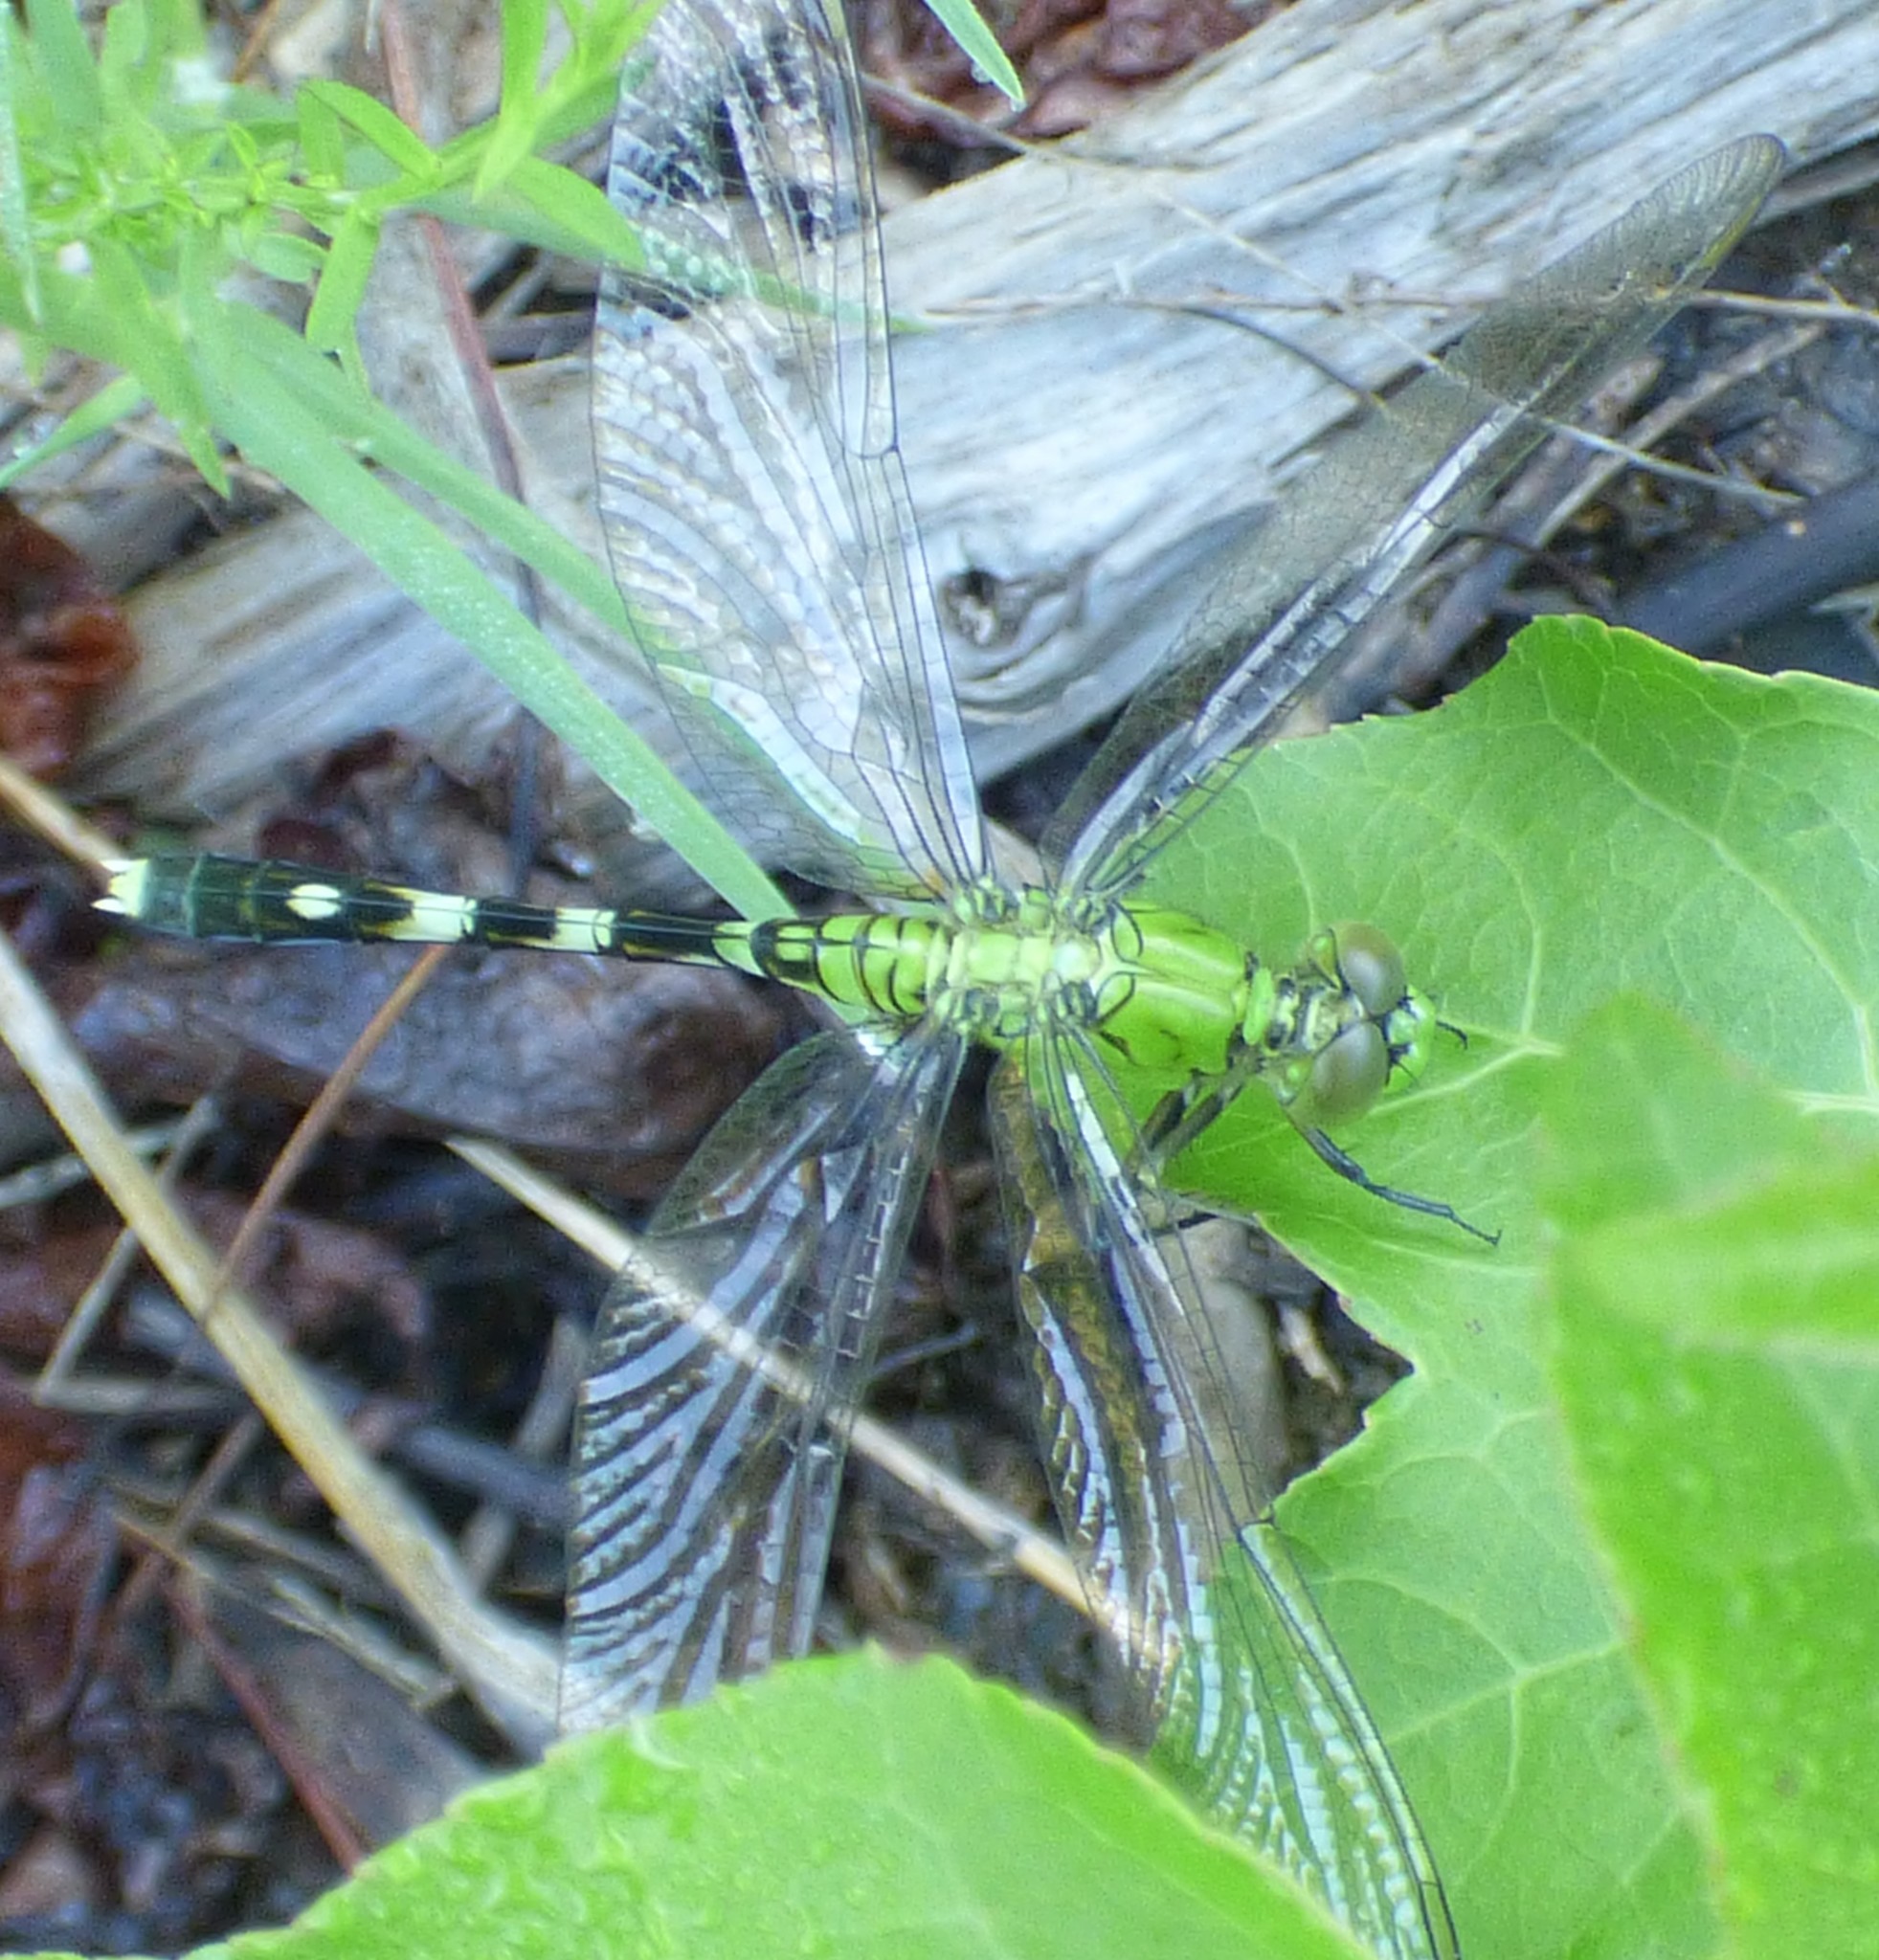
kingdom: Animalia
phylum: Arthropoda
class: Insecta
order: Odonata
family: Libellulidae
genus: Erythemis
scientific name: Erythemis simplicicollis
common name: Eastern pondhawk
